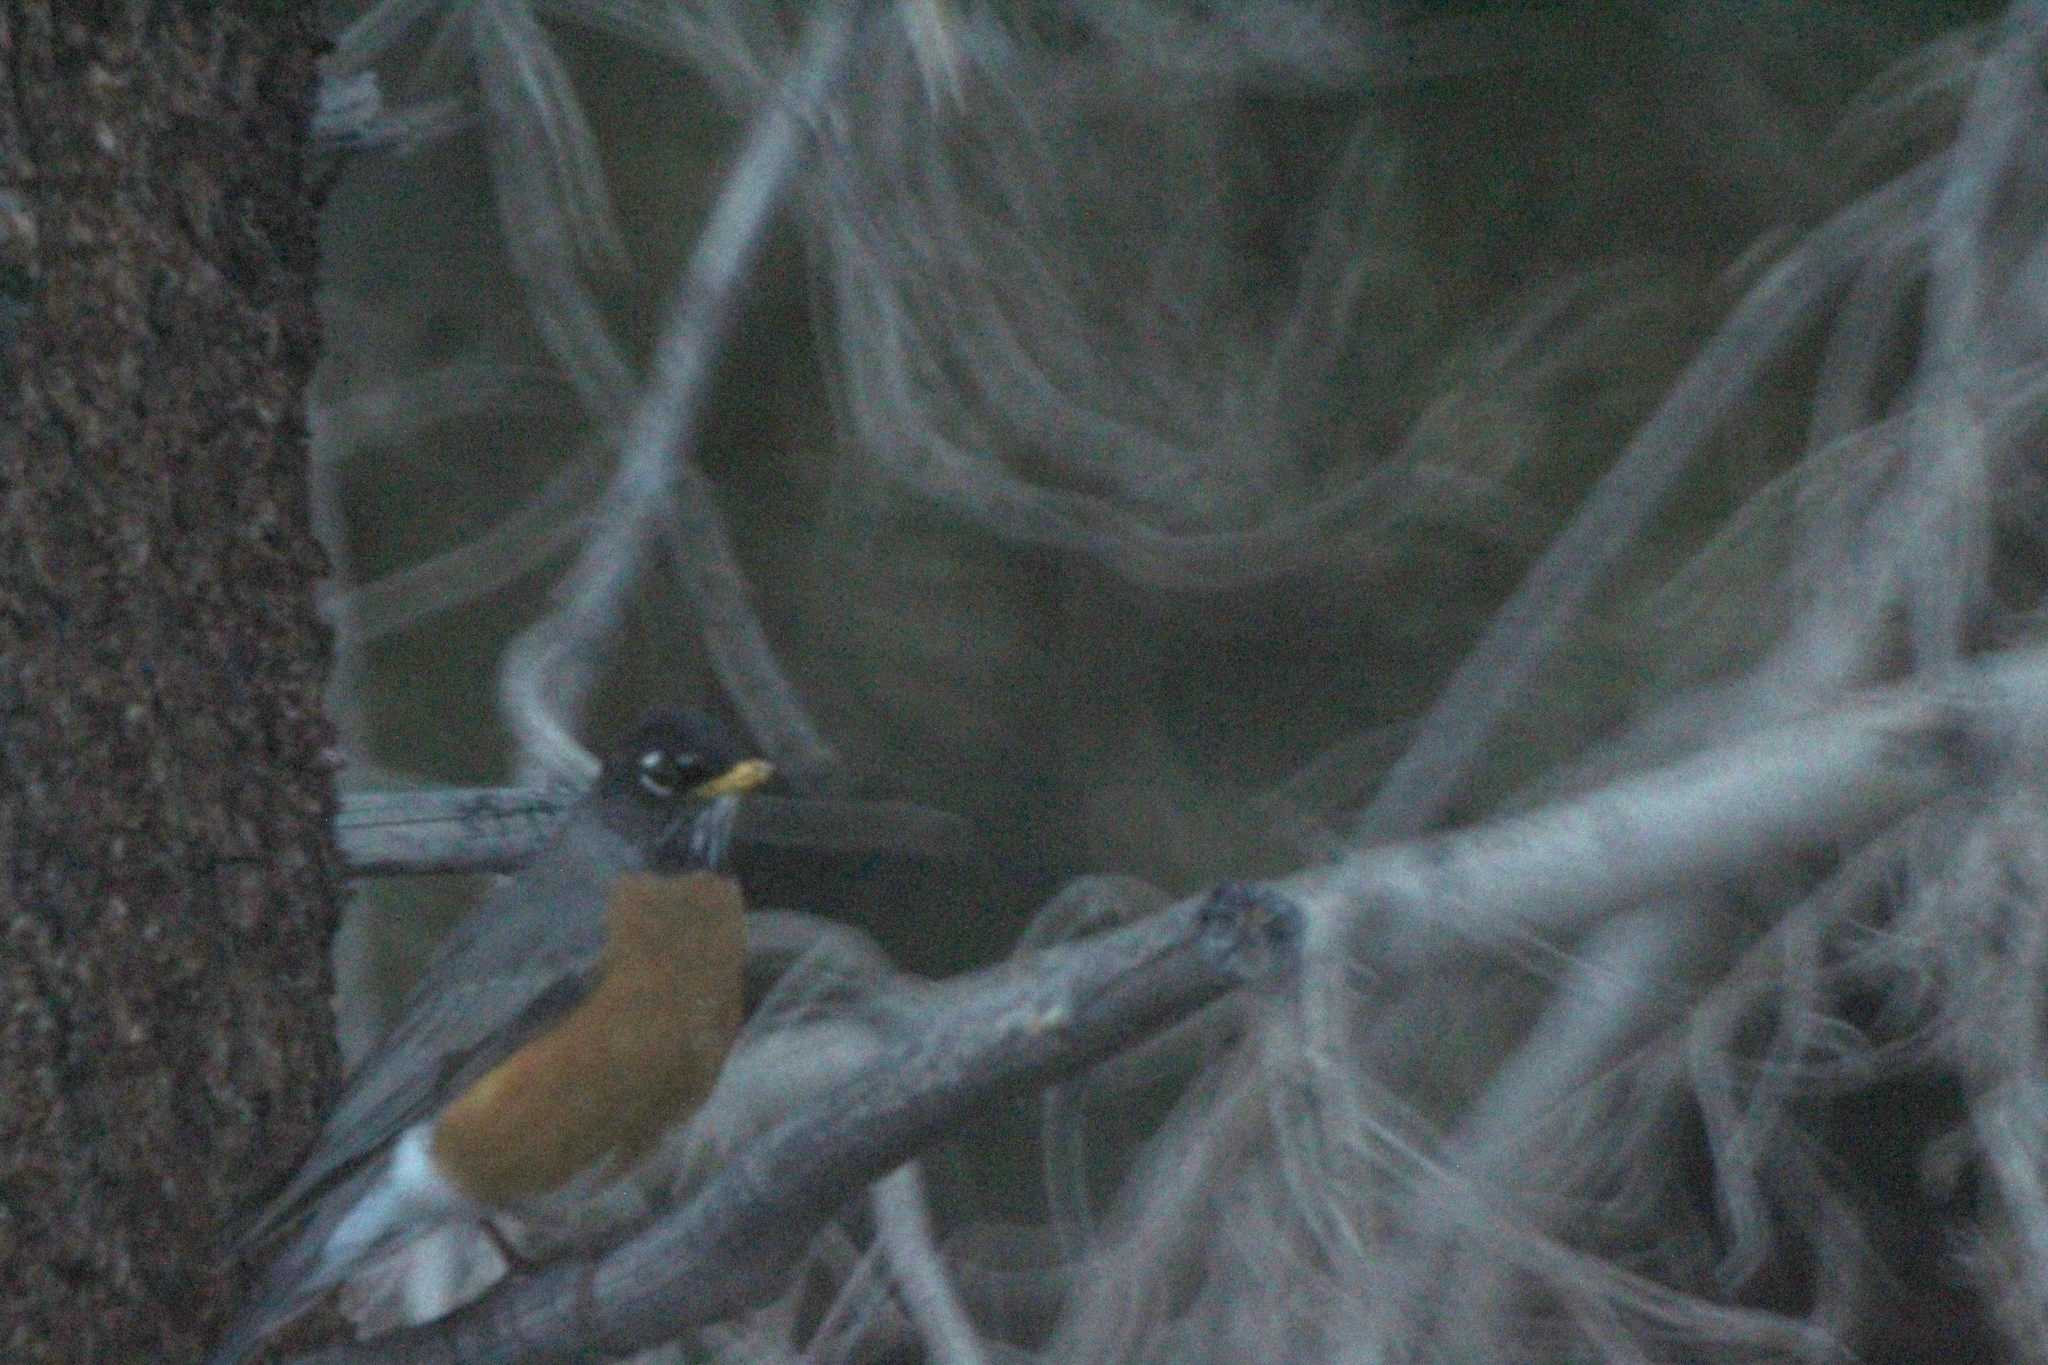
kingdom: Animalia
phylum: Chordata
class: Aves
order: Passeriformes
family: Turdidae
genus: Turdus
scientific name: Turdus migratorius
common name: American robin
